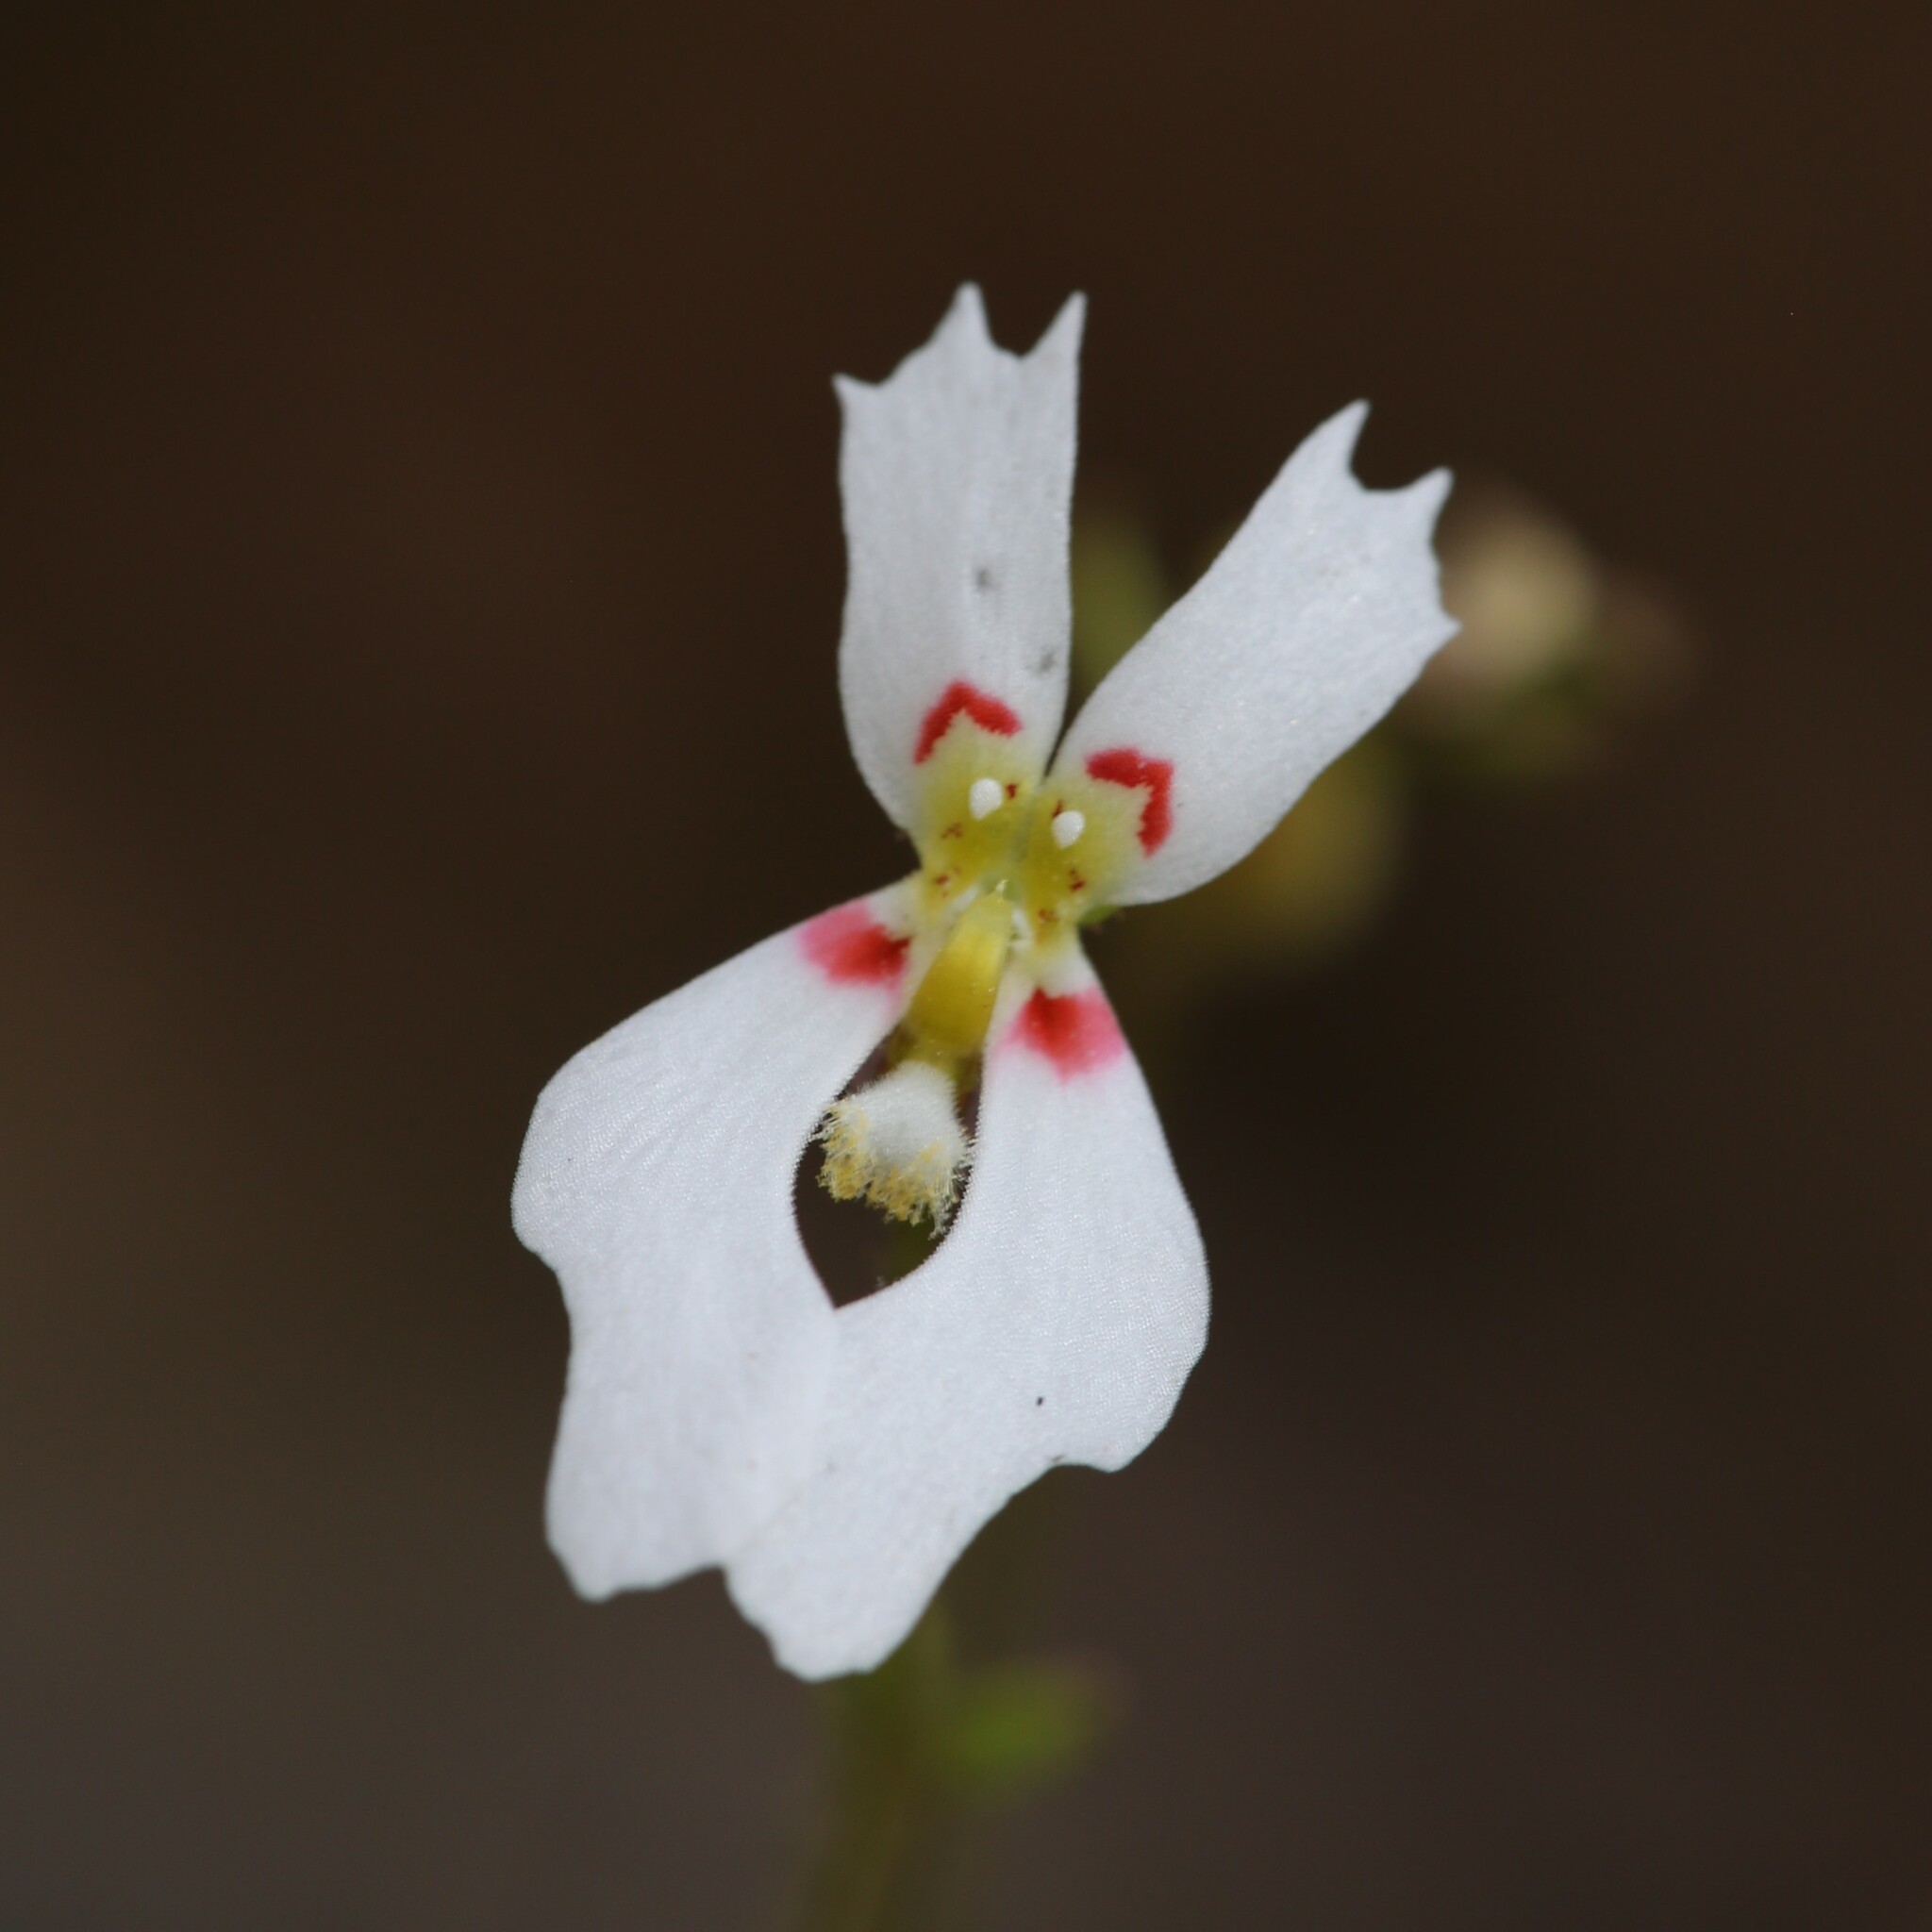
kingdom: Plantae
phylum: Tracheophyta
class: Magnoliopsida
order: Asterales
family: Stylidiaceae
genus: Stylidium
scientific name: Stylidium androsaceum
